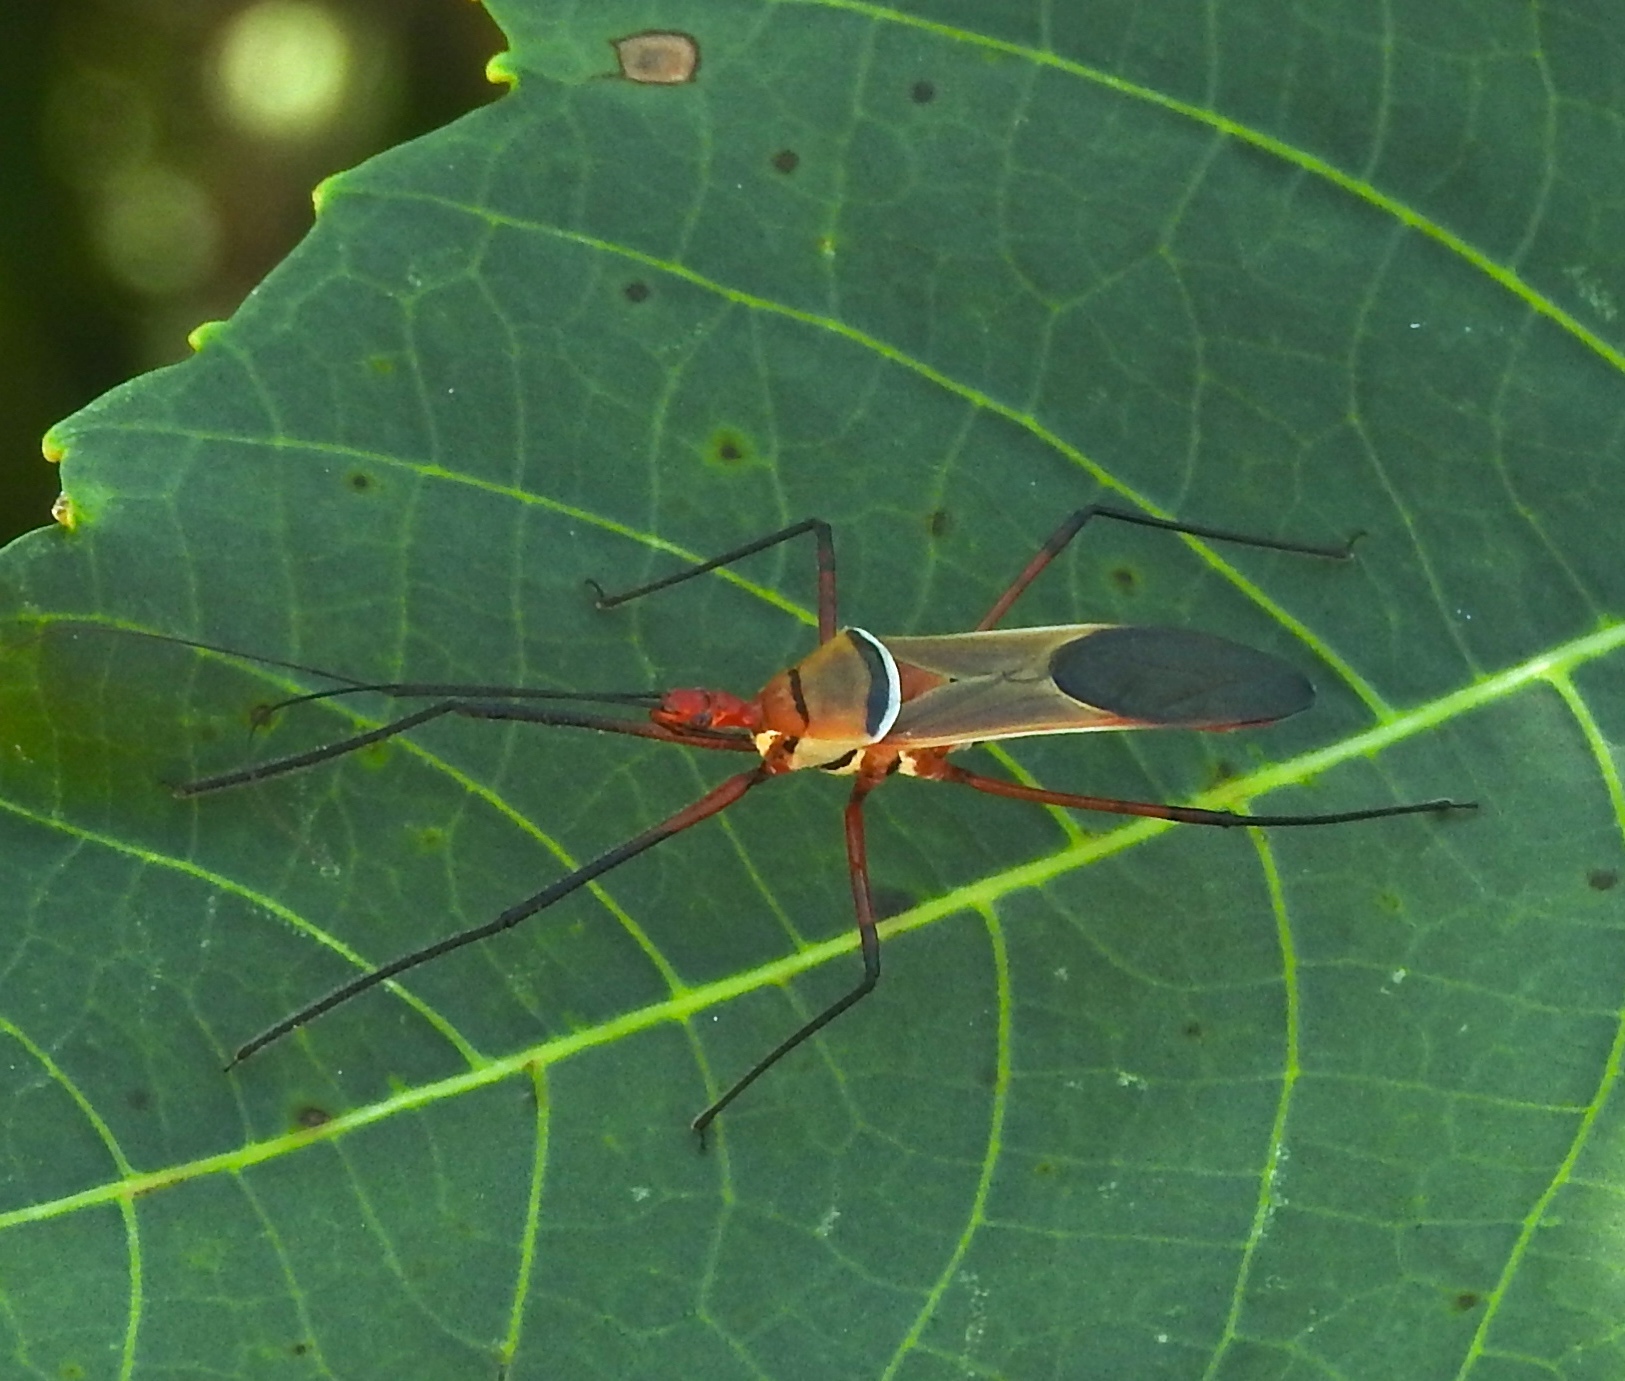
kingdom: Animalia
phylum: Arthropoda
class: Insecta
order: Hemiptera
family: Reduviidae
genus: Zelus
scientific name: Zelus grassans
